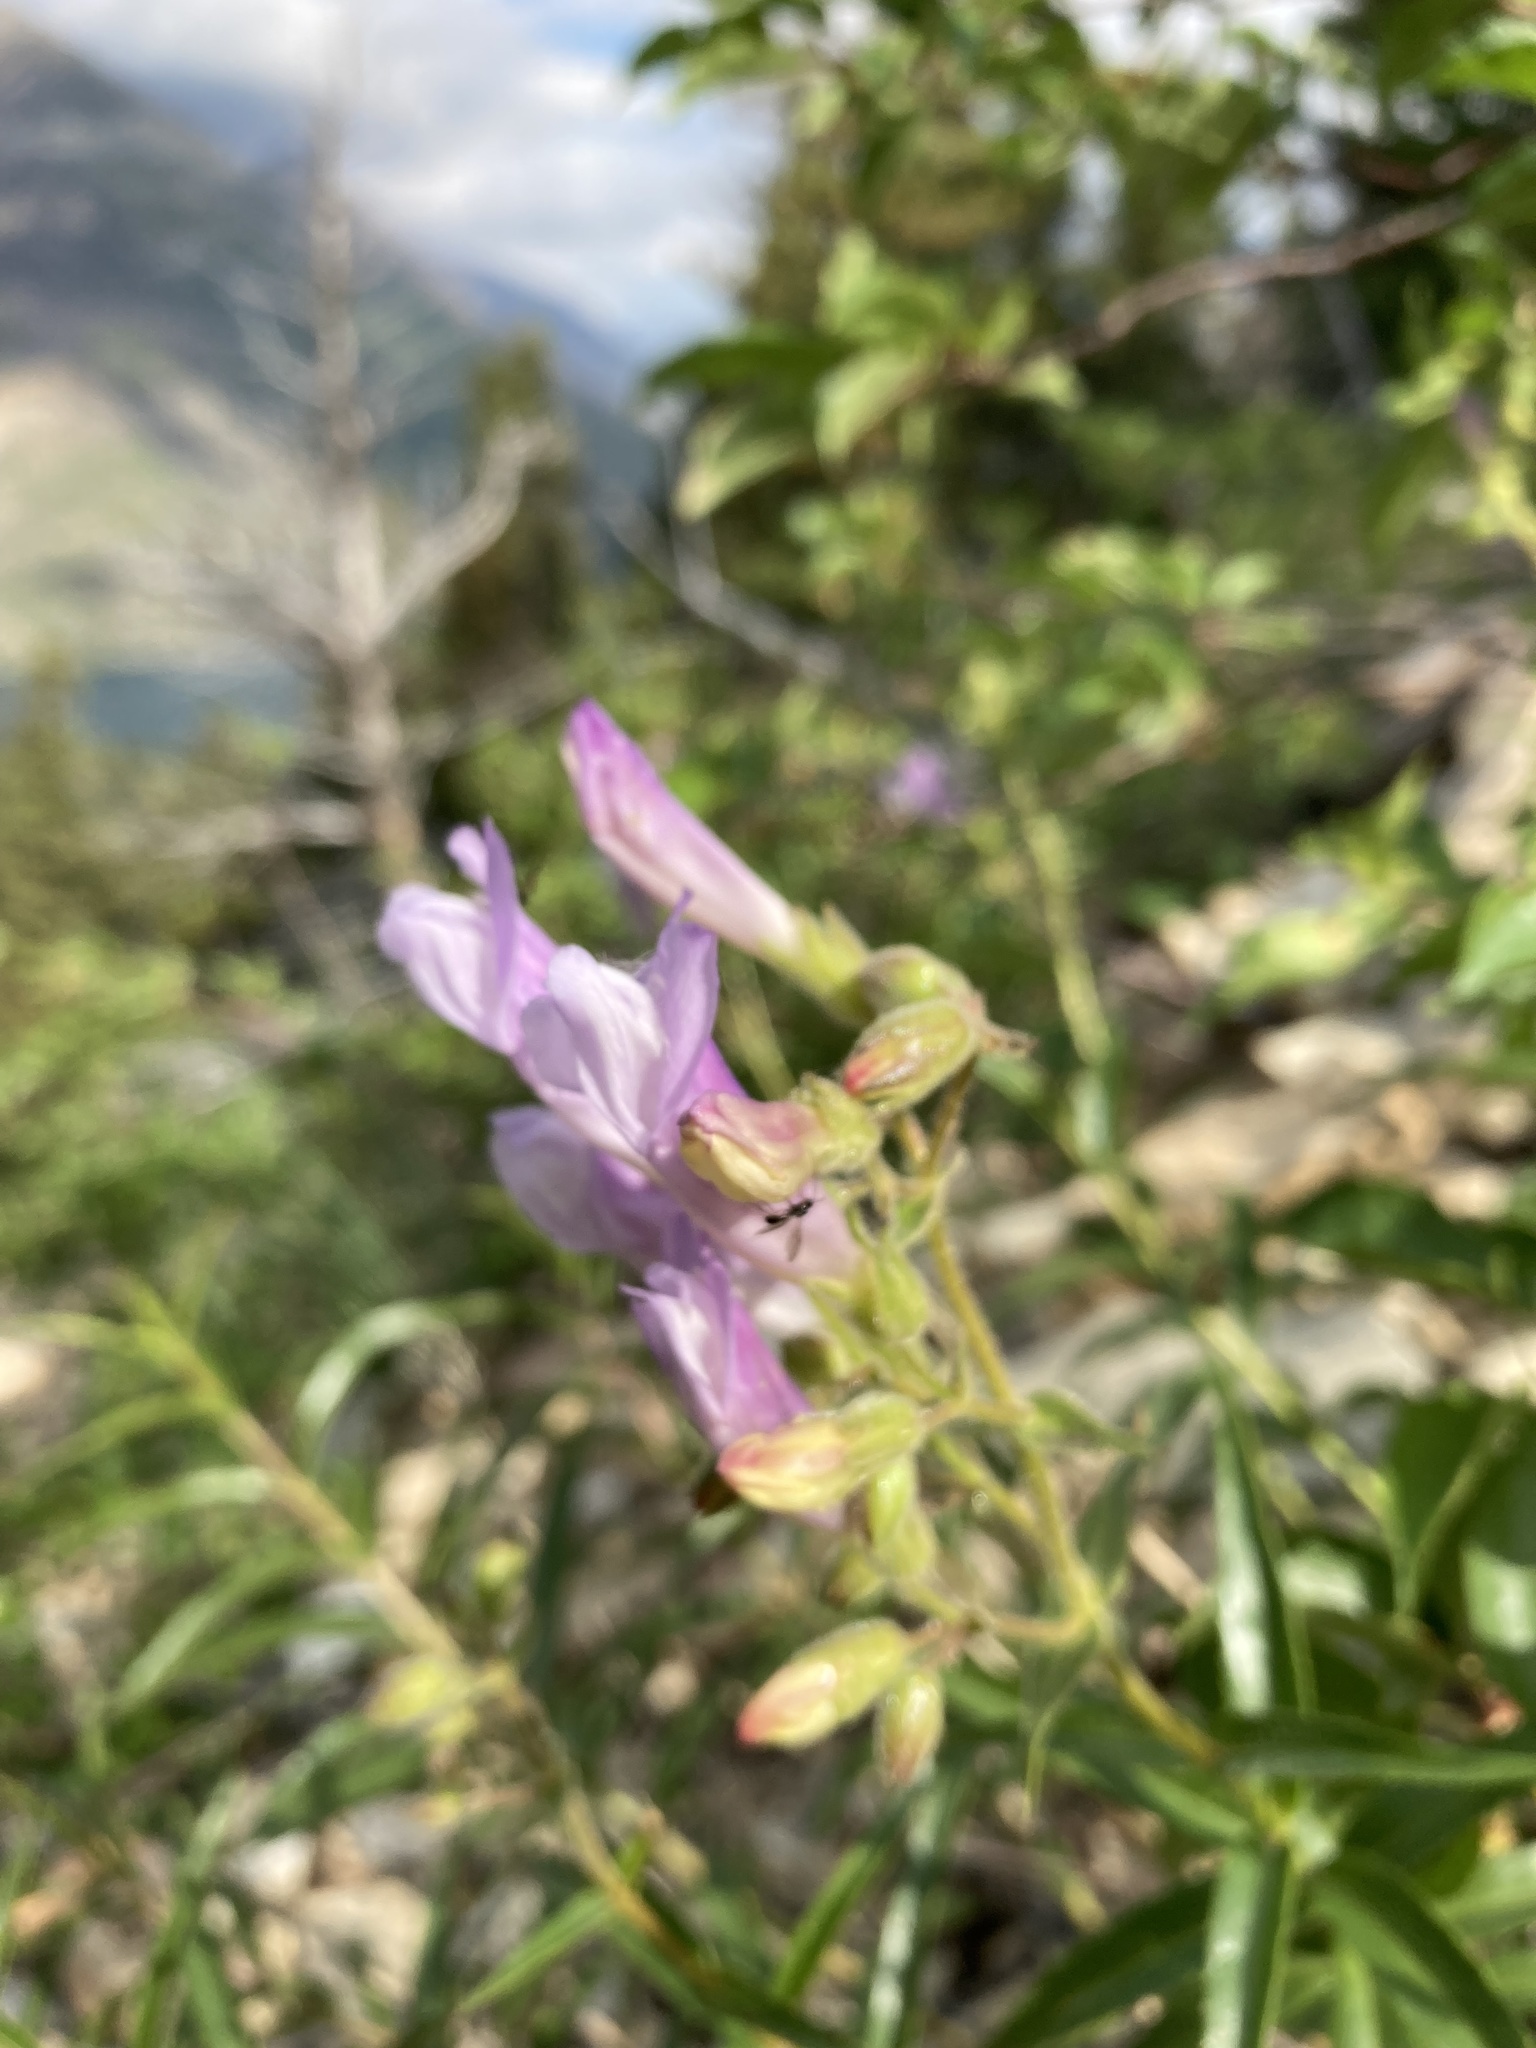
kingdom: Plantae
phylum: Tracheophyta
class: Magnoliopsida
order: Lamiales
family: Plantaginaceae
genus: Penstemon
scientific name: Penstemon lyalli
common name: Lyall's beardtongue
